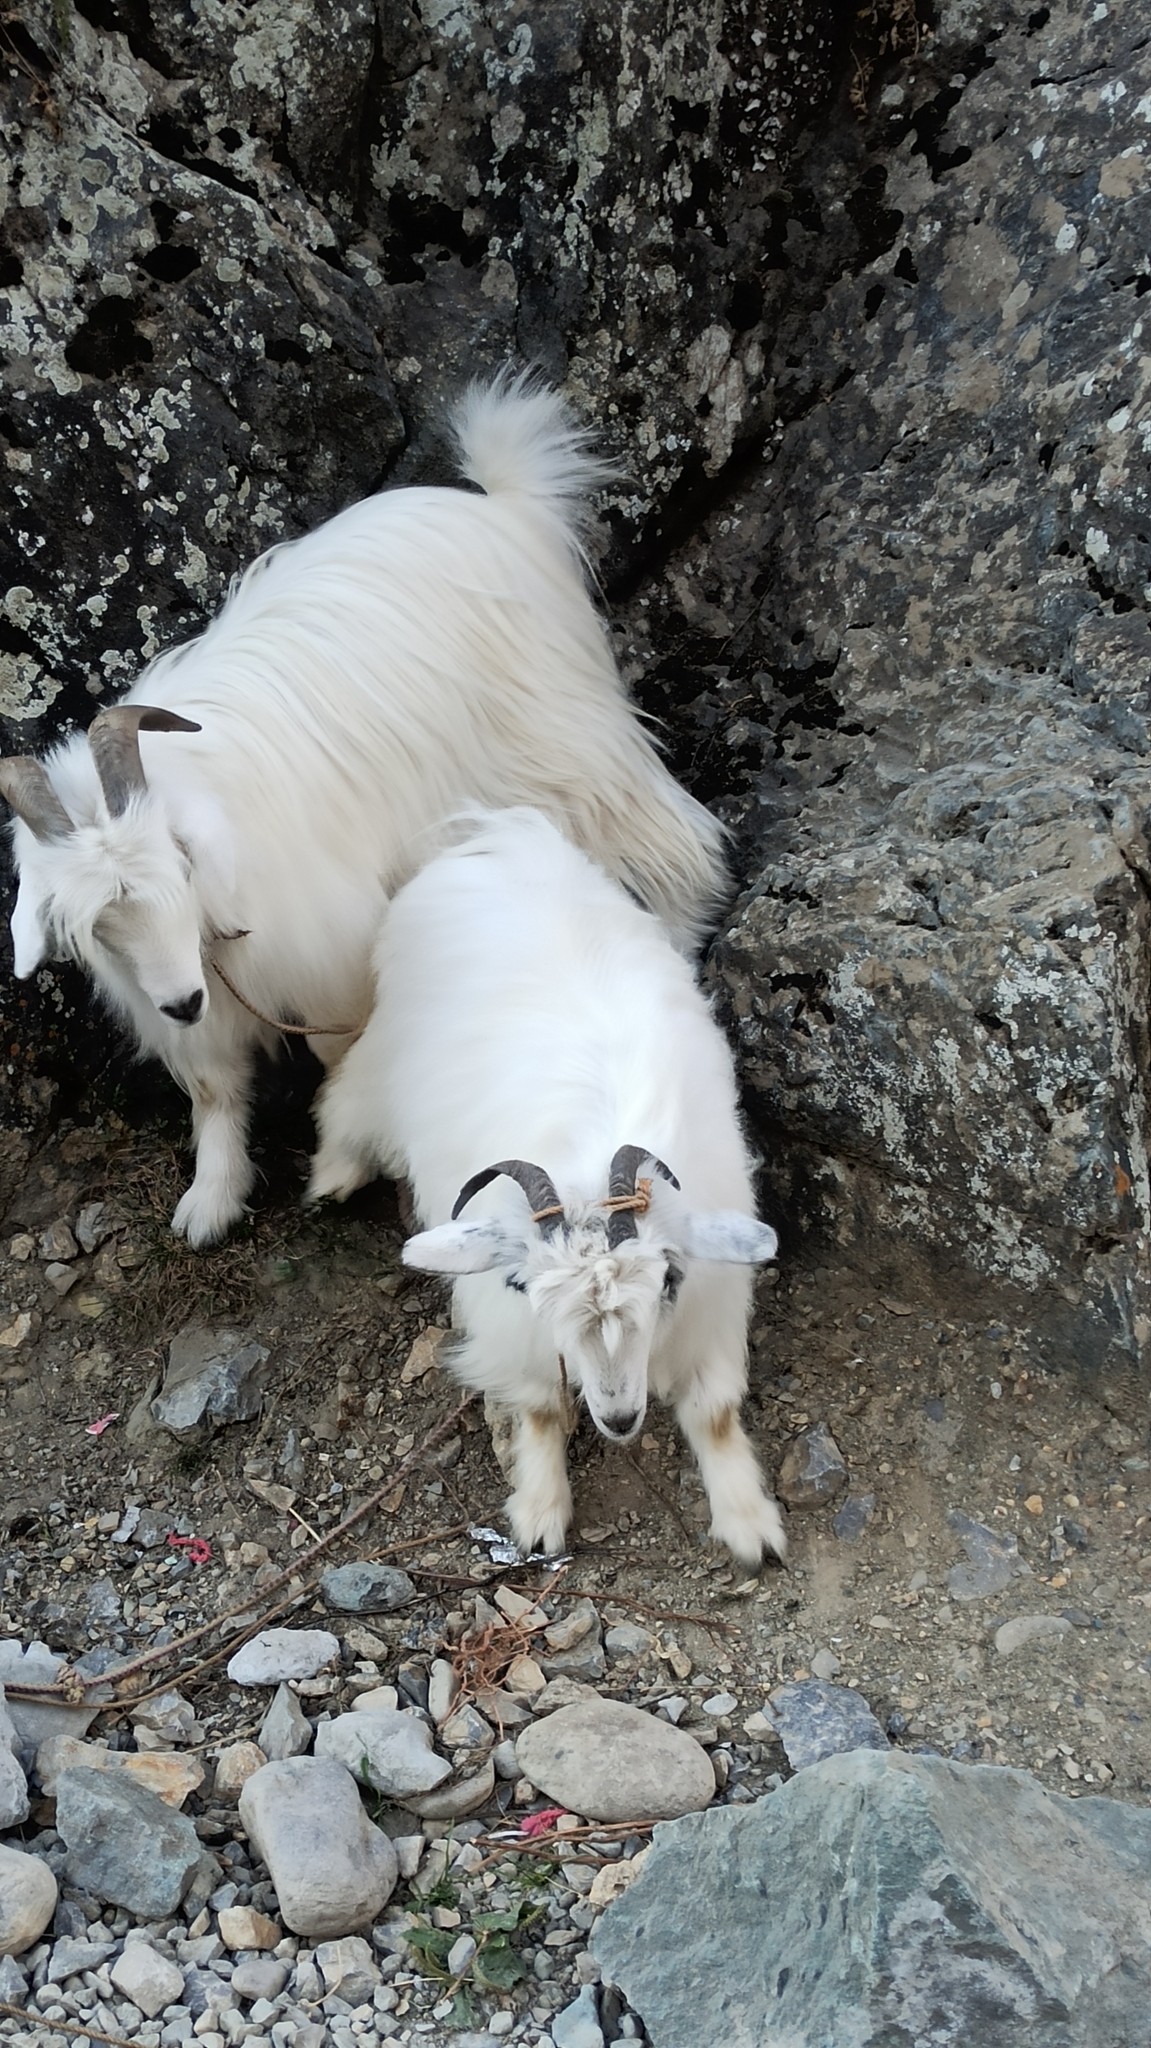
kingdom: Animalia
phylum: Chordata
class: Mammalia
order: Artiodactyla
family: Bovidae
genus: Capra
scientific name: Capra hircus
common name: Domestic goat
